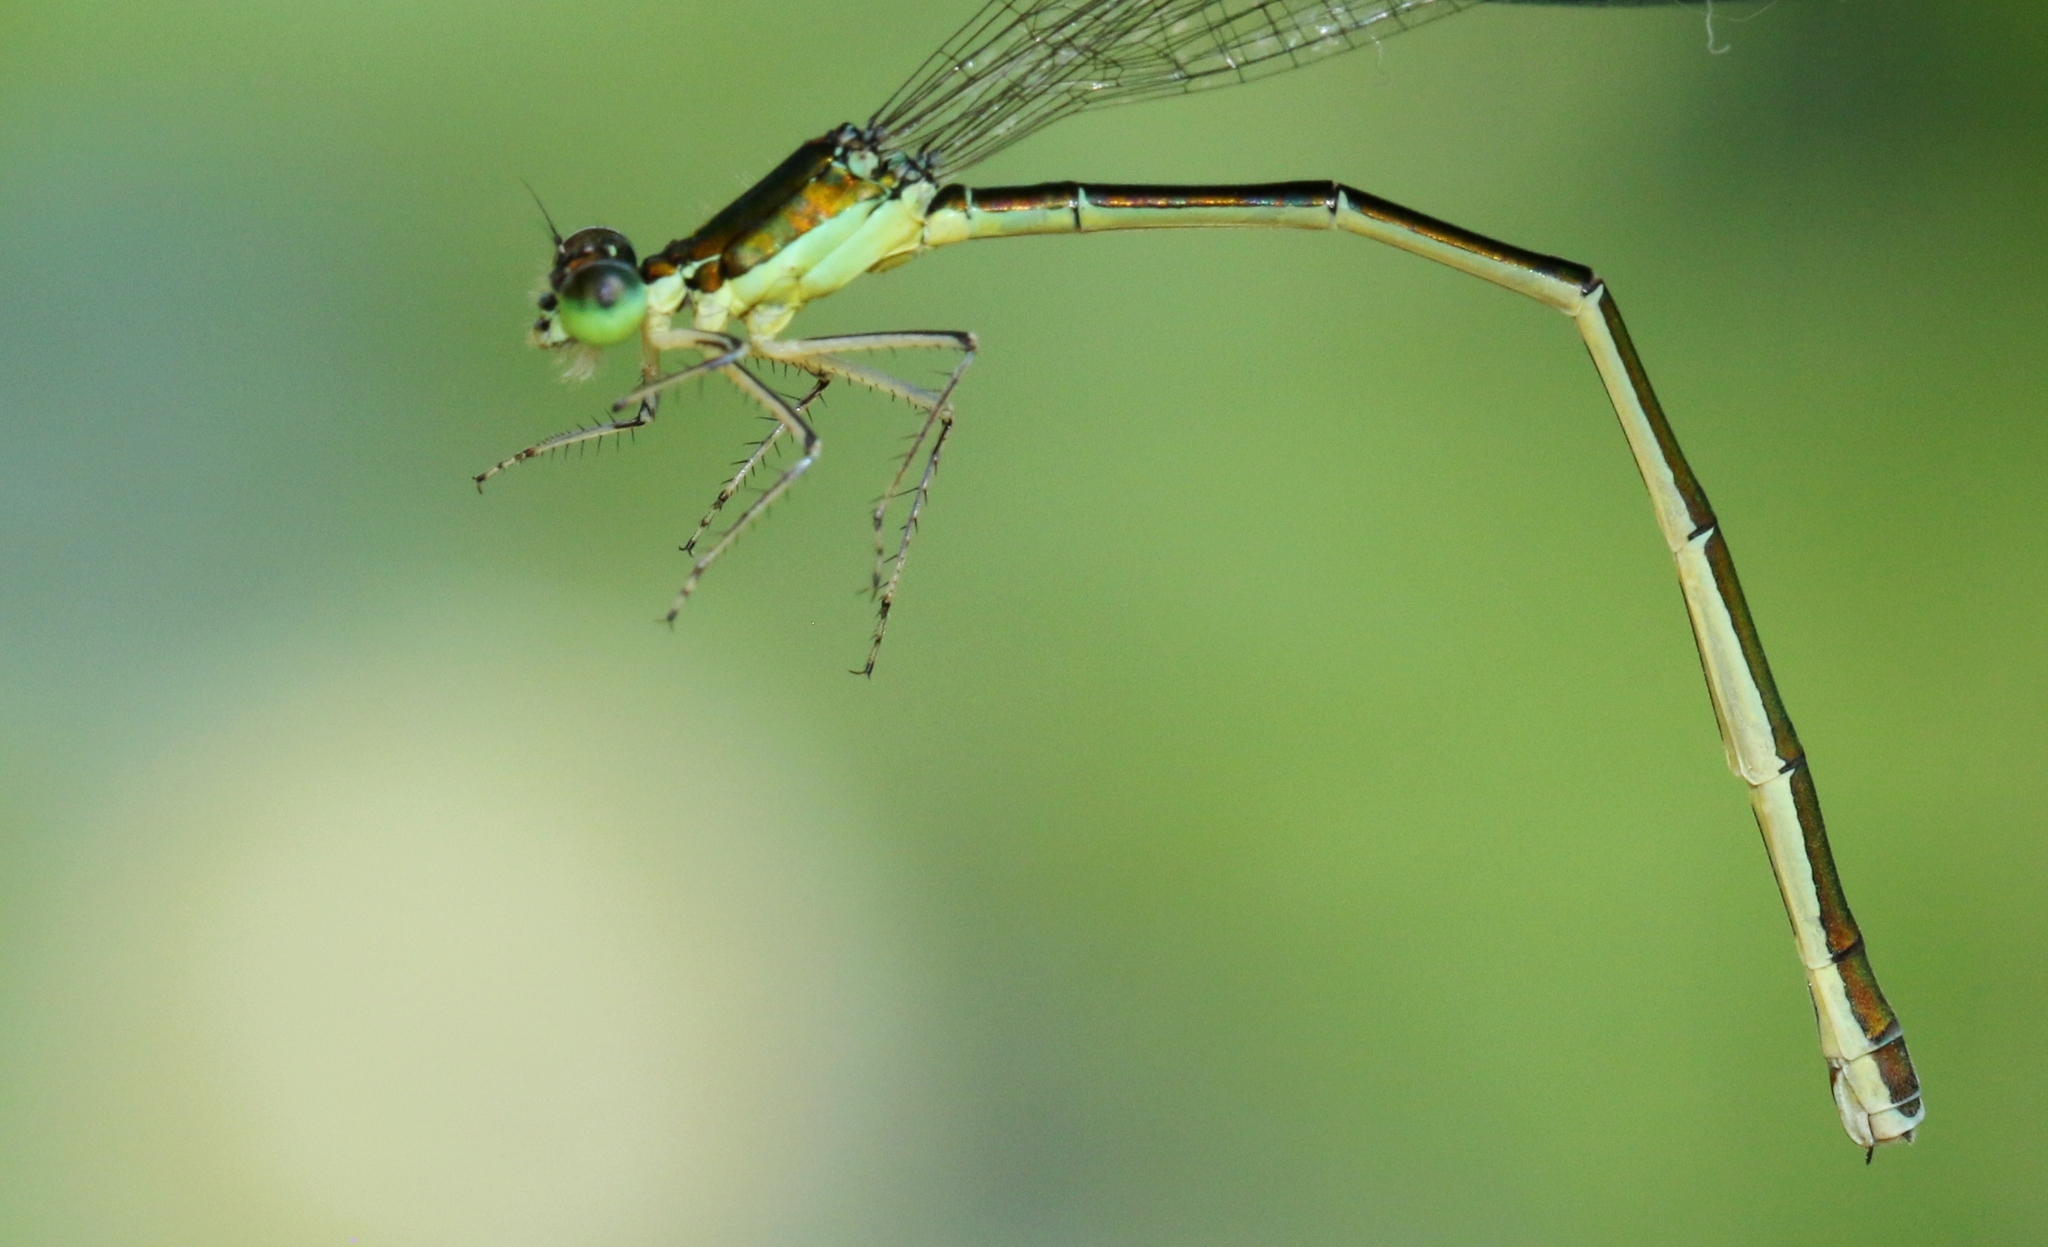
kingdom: Animalia
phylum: Arthropoda
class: Insecta
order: Odonata
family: Coenagrionidae
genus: Nehalennia
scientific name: Nehalennia irene
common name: Sedge sprite
